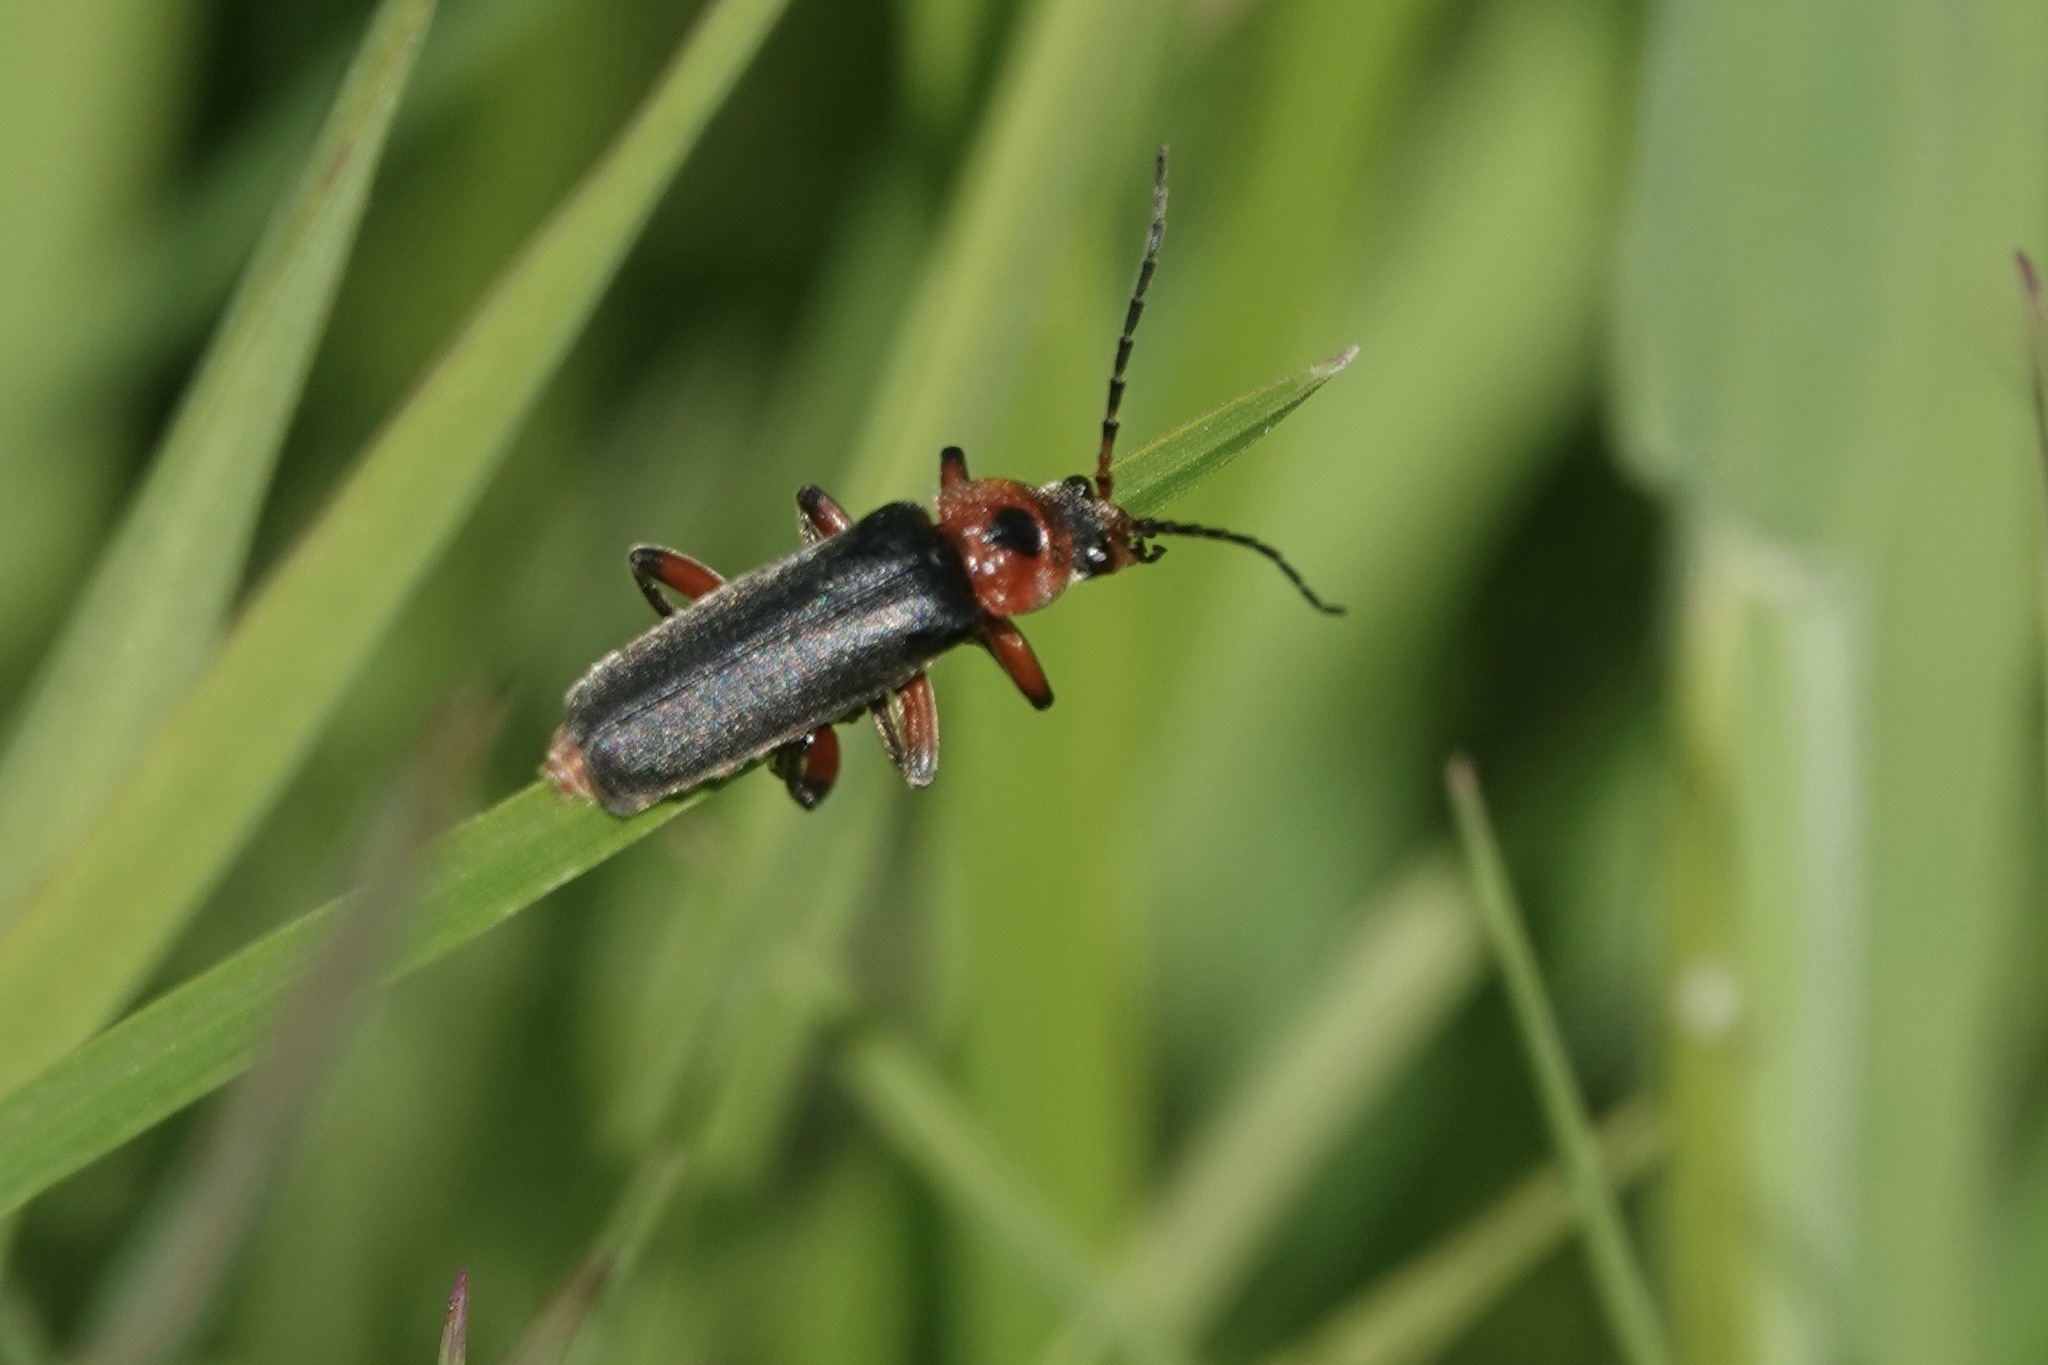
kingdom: Animalia
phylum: Arthropoda
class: Insecta
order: Coleoptera
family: Cantharidae
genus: Cantharis
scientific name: Cantharis rustica
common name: Soldier beetle
